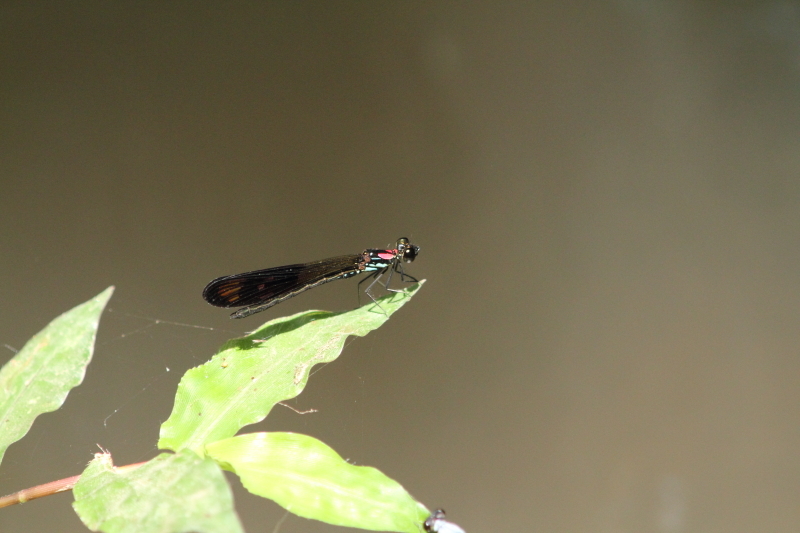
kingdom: Animalia
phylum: Arthropoda
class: Insecta
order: Odonata
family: Chlorocyphidae
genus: Heliocypha
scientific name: Heliocypha fenestrata
